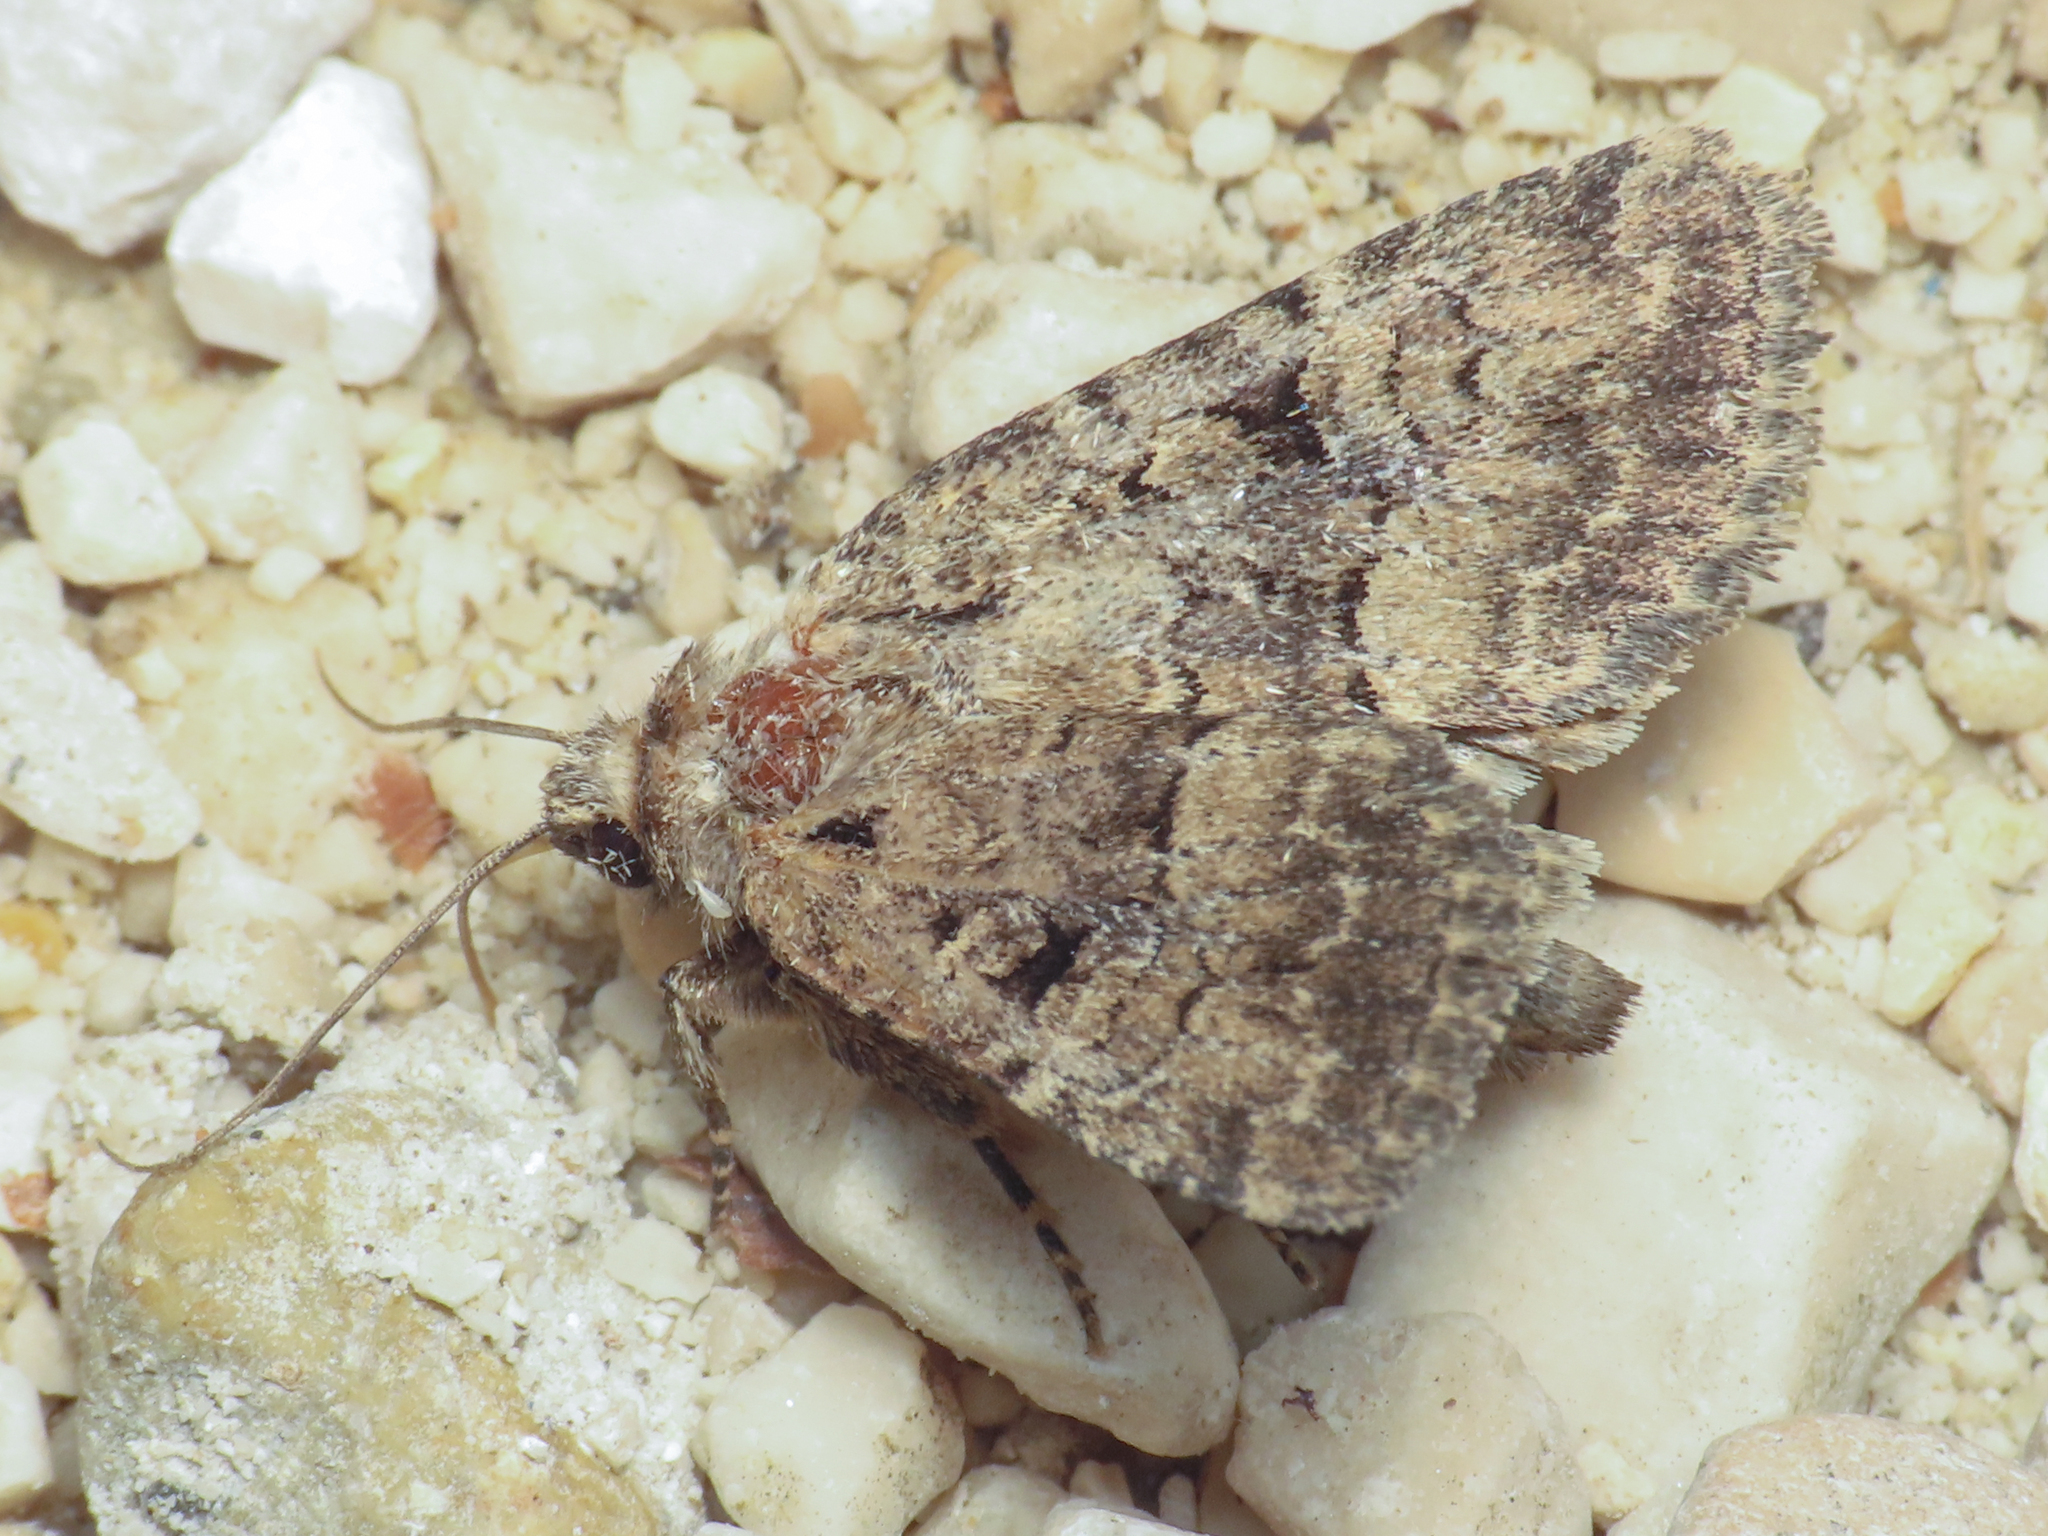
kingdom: Animalia
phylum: Arthropoda
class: Insecta
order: Lepidoptera
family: Noctuidae
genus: Lasionycta
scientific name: Lasionycta Clemathada calberlai
